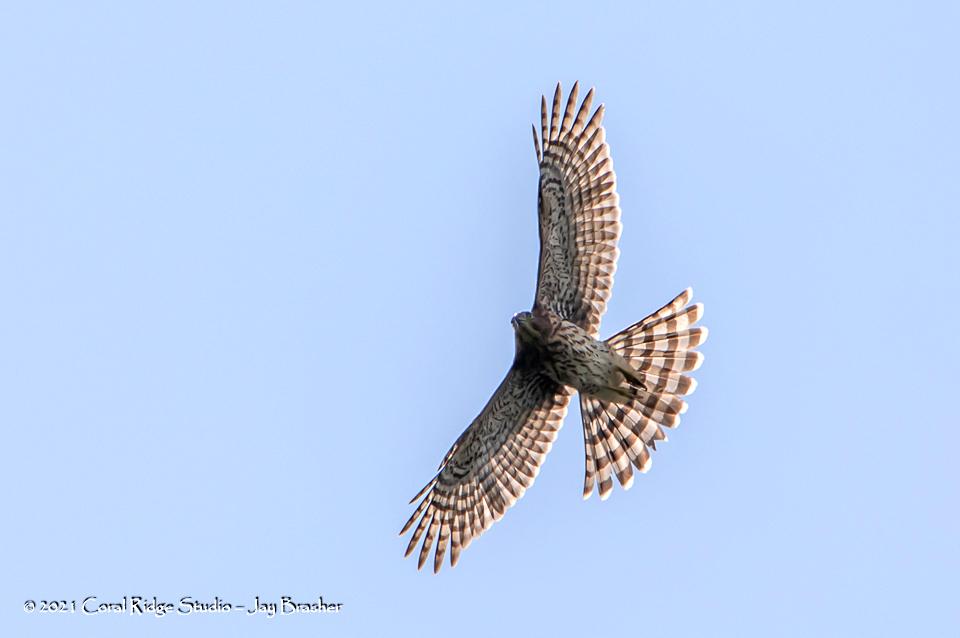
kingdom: Animalia
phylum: Chordata
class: Aves
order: Accipitriformes
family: Accipitridae
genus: Accipiter
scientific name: Accipiter cooperii
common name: Cooper's hawk
